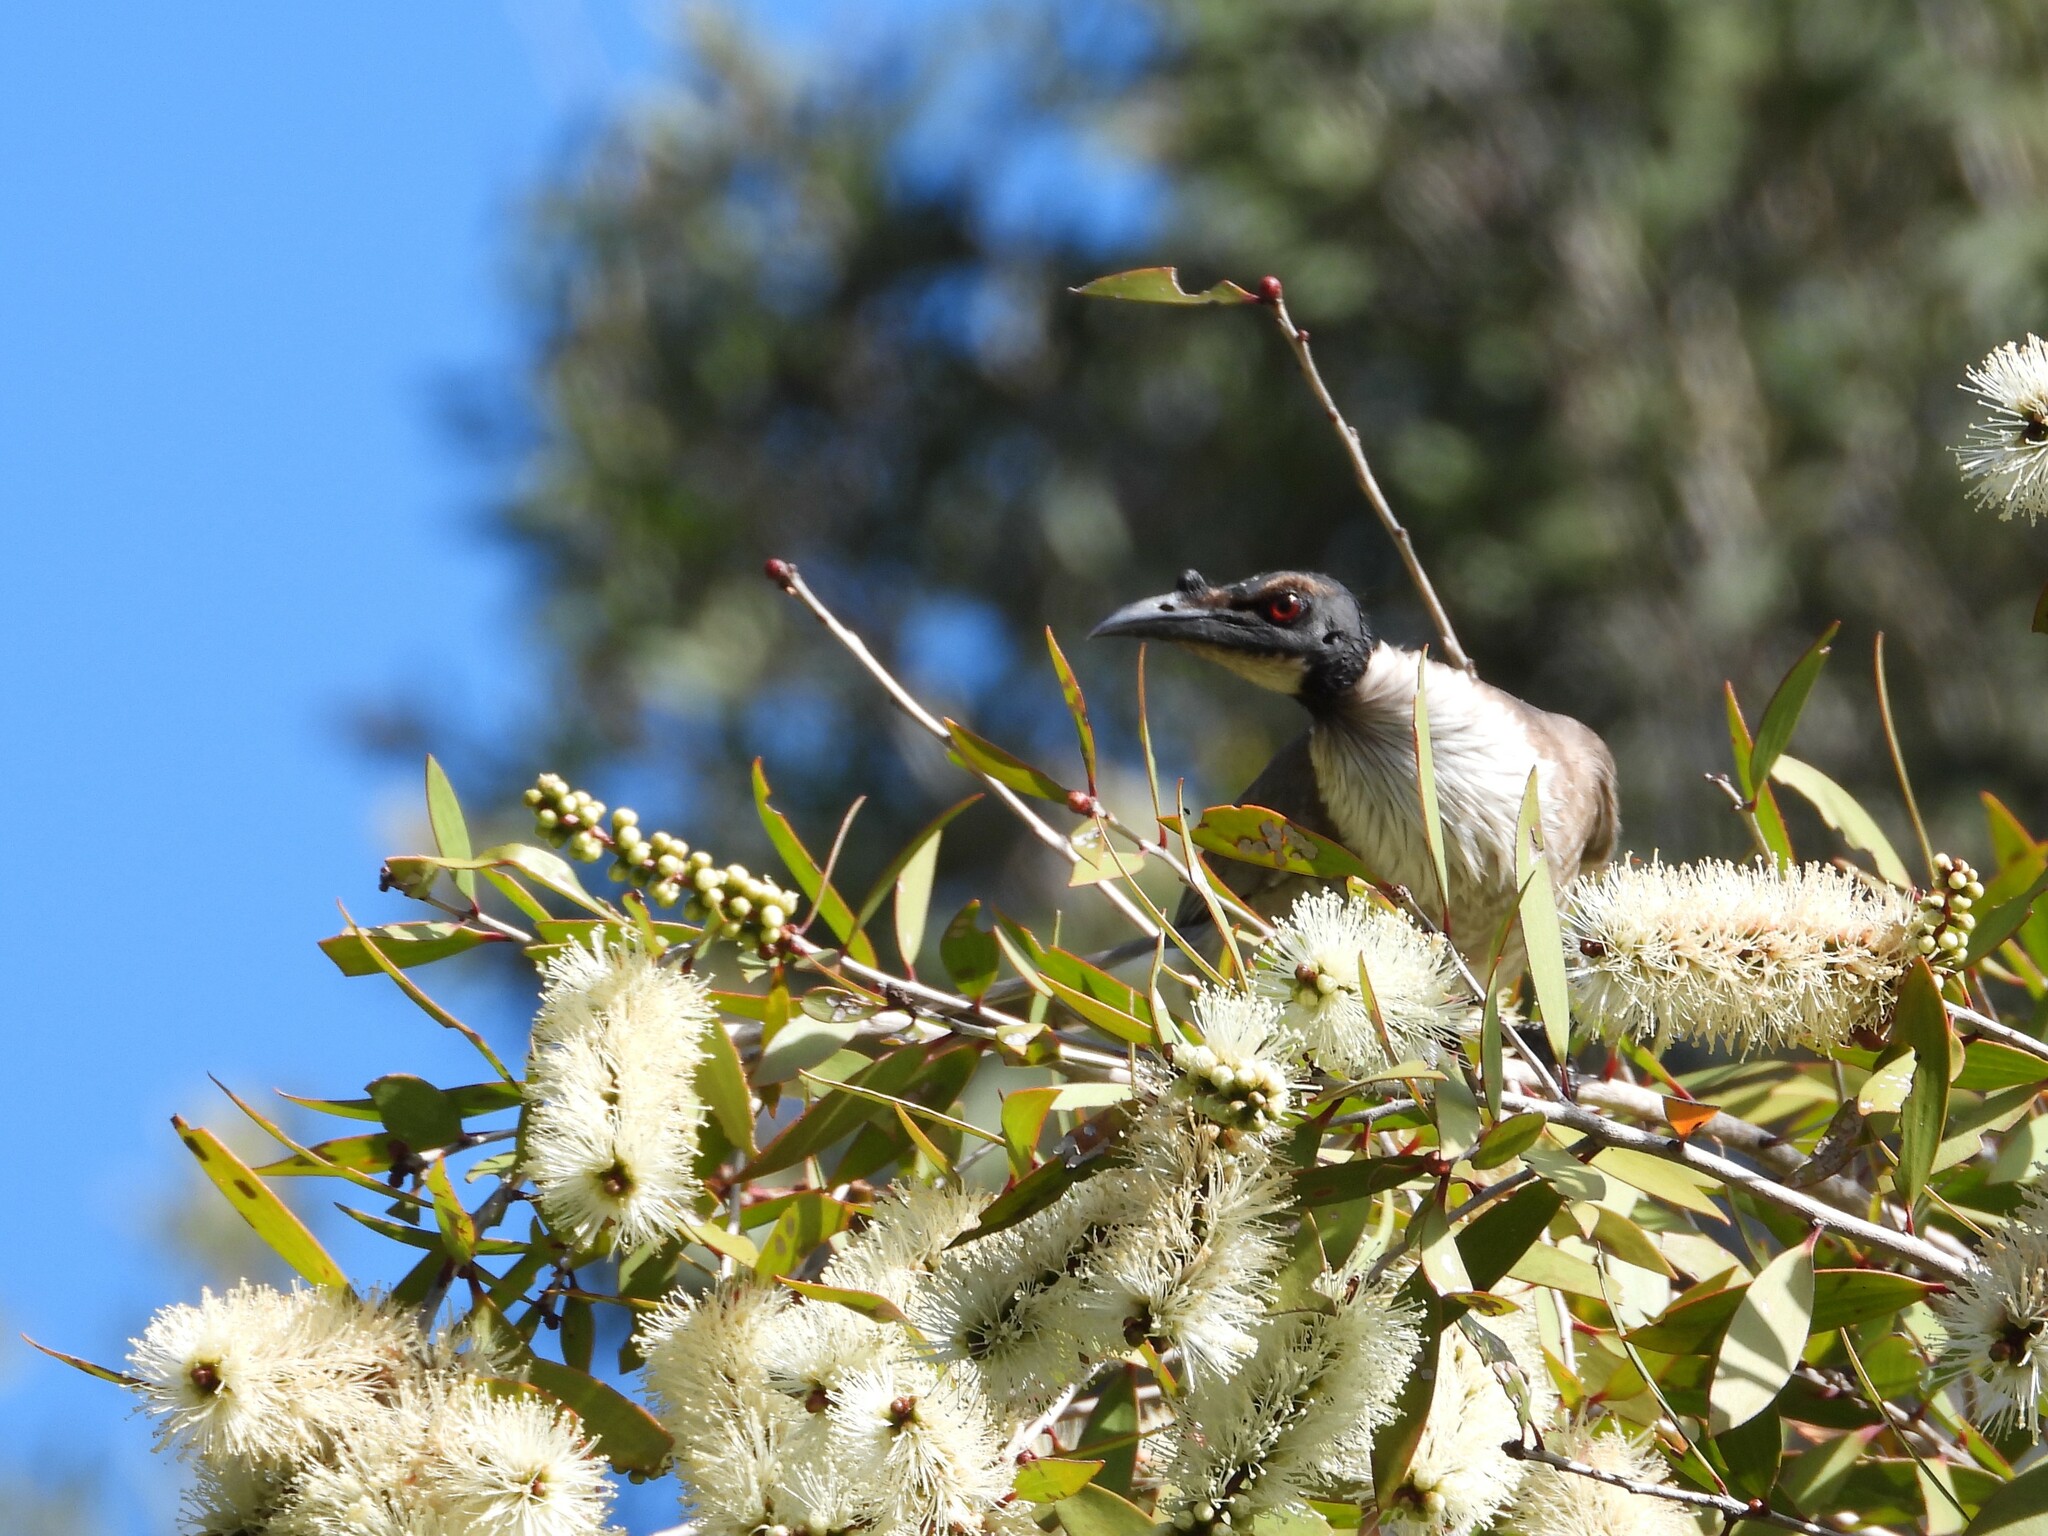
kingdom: Animalia
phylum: Chordata
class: Aves
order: Passeriformes
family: Meliphagidae
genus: Philemon
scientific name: Philemon corniculatus
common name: Noisy friarbird
